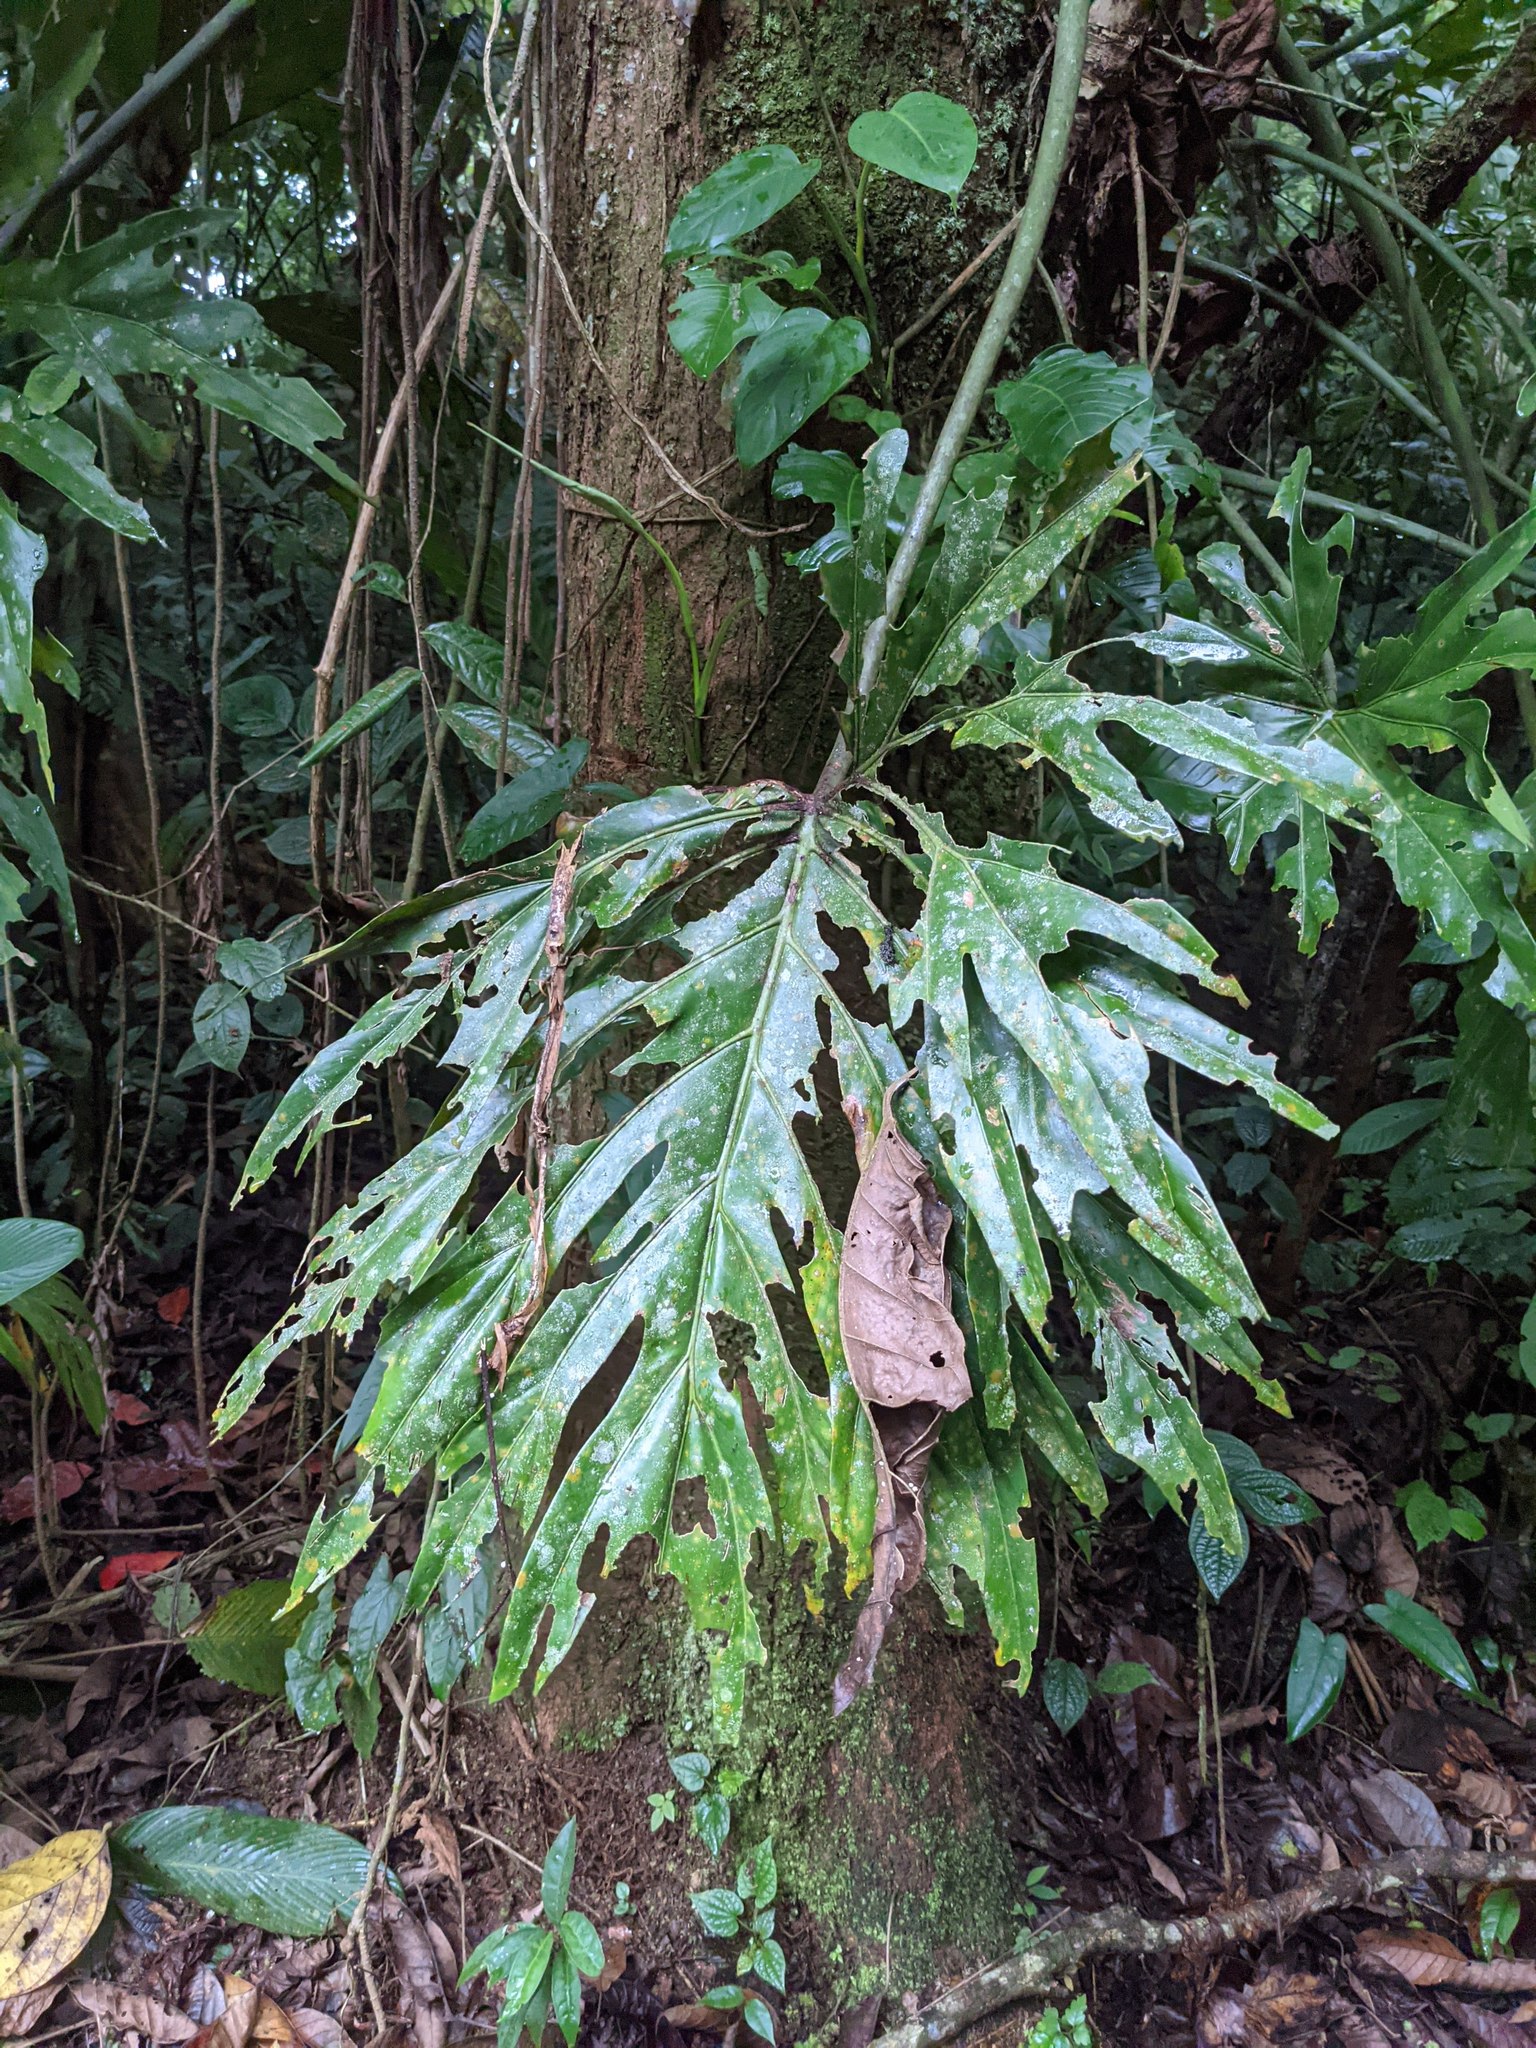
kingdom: Plantae
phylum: Tracheophyta
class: Liliopsida
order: Alismatales
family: Araceae
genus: Philodendron
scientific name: Philodendron radiatum
